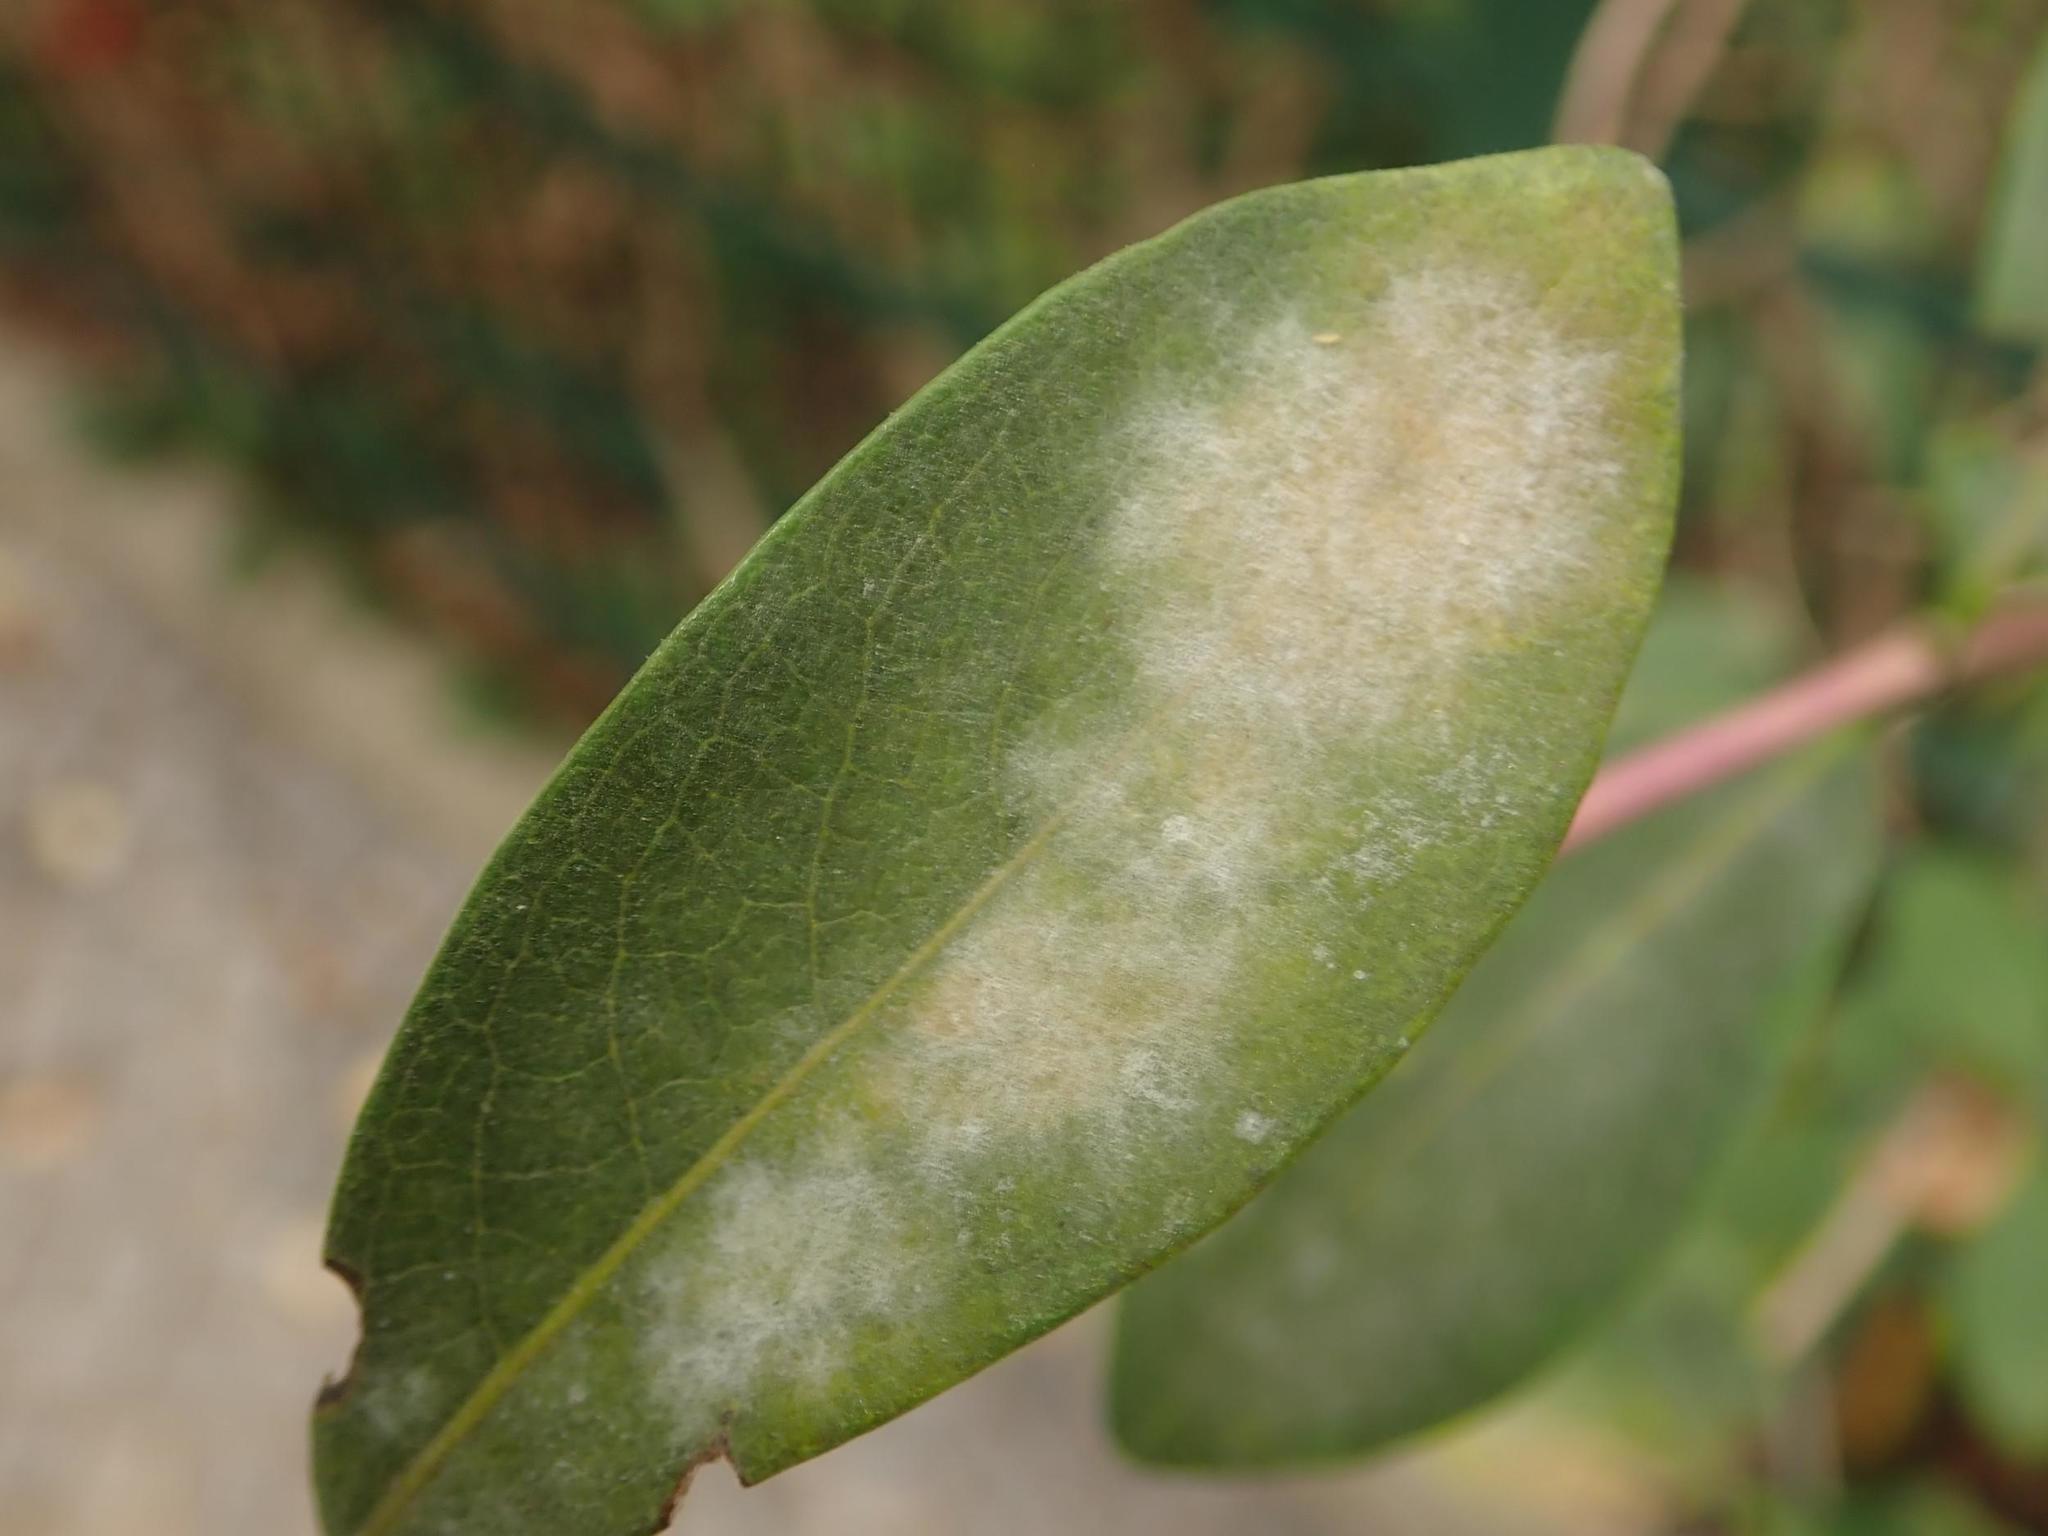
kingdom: Fungi
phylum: Ascomycota
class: Leotiomycetes
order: Helotiales
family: Erysiphaceae
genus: Erysiphe
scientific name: Erysiphe lonicerae
